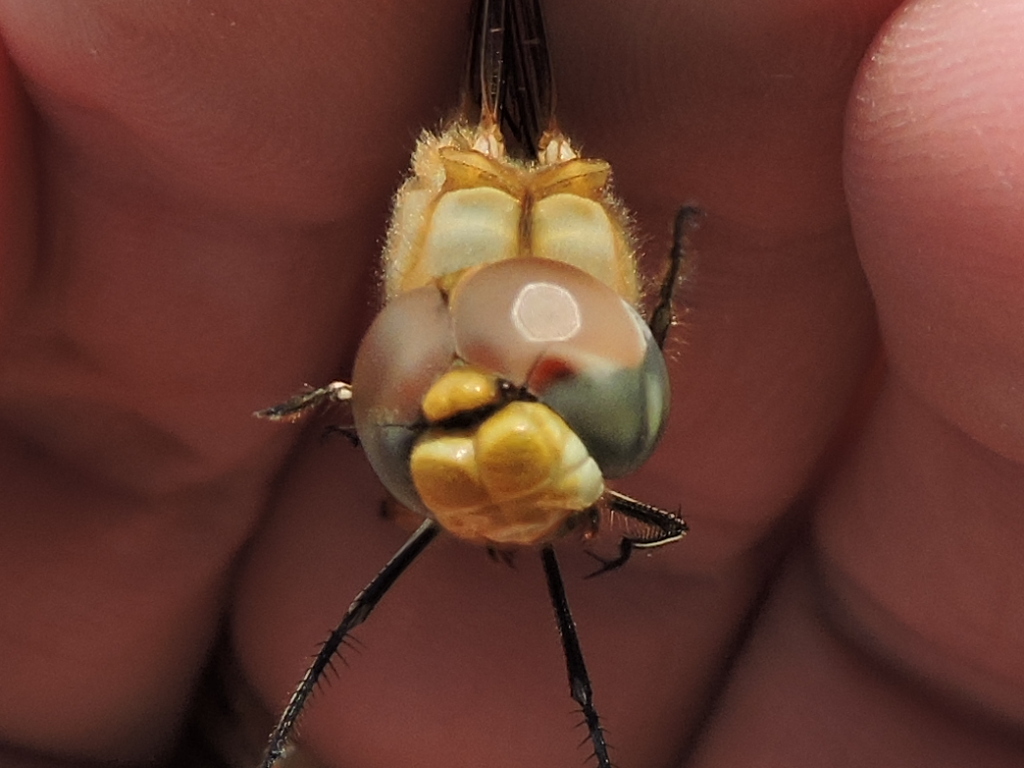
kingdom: Animalia
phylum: Arthropoda
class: Insecta
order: Odonata
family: Libellulidae
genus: Pantala
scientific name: Pantala flavescens
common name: Wandering glider
